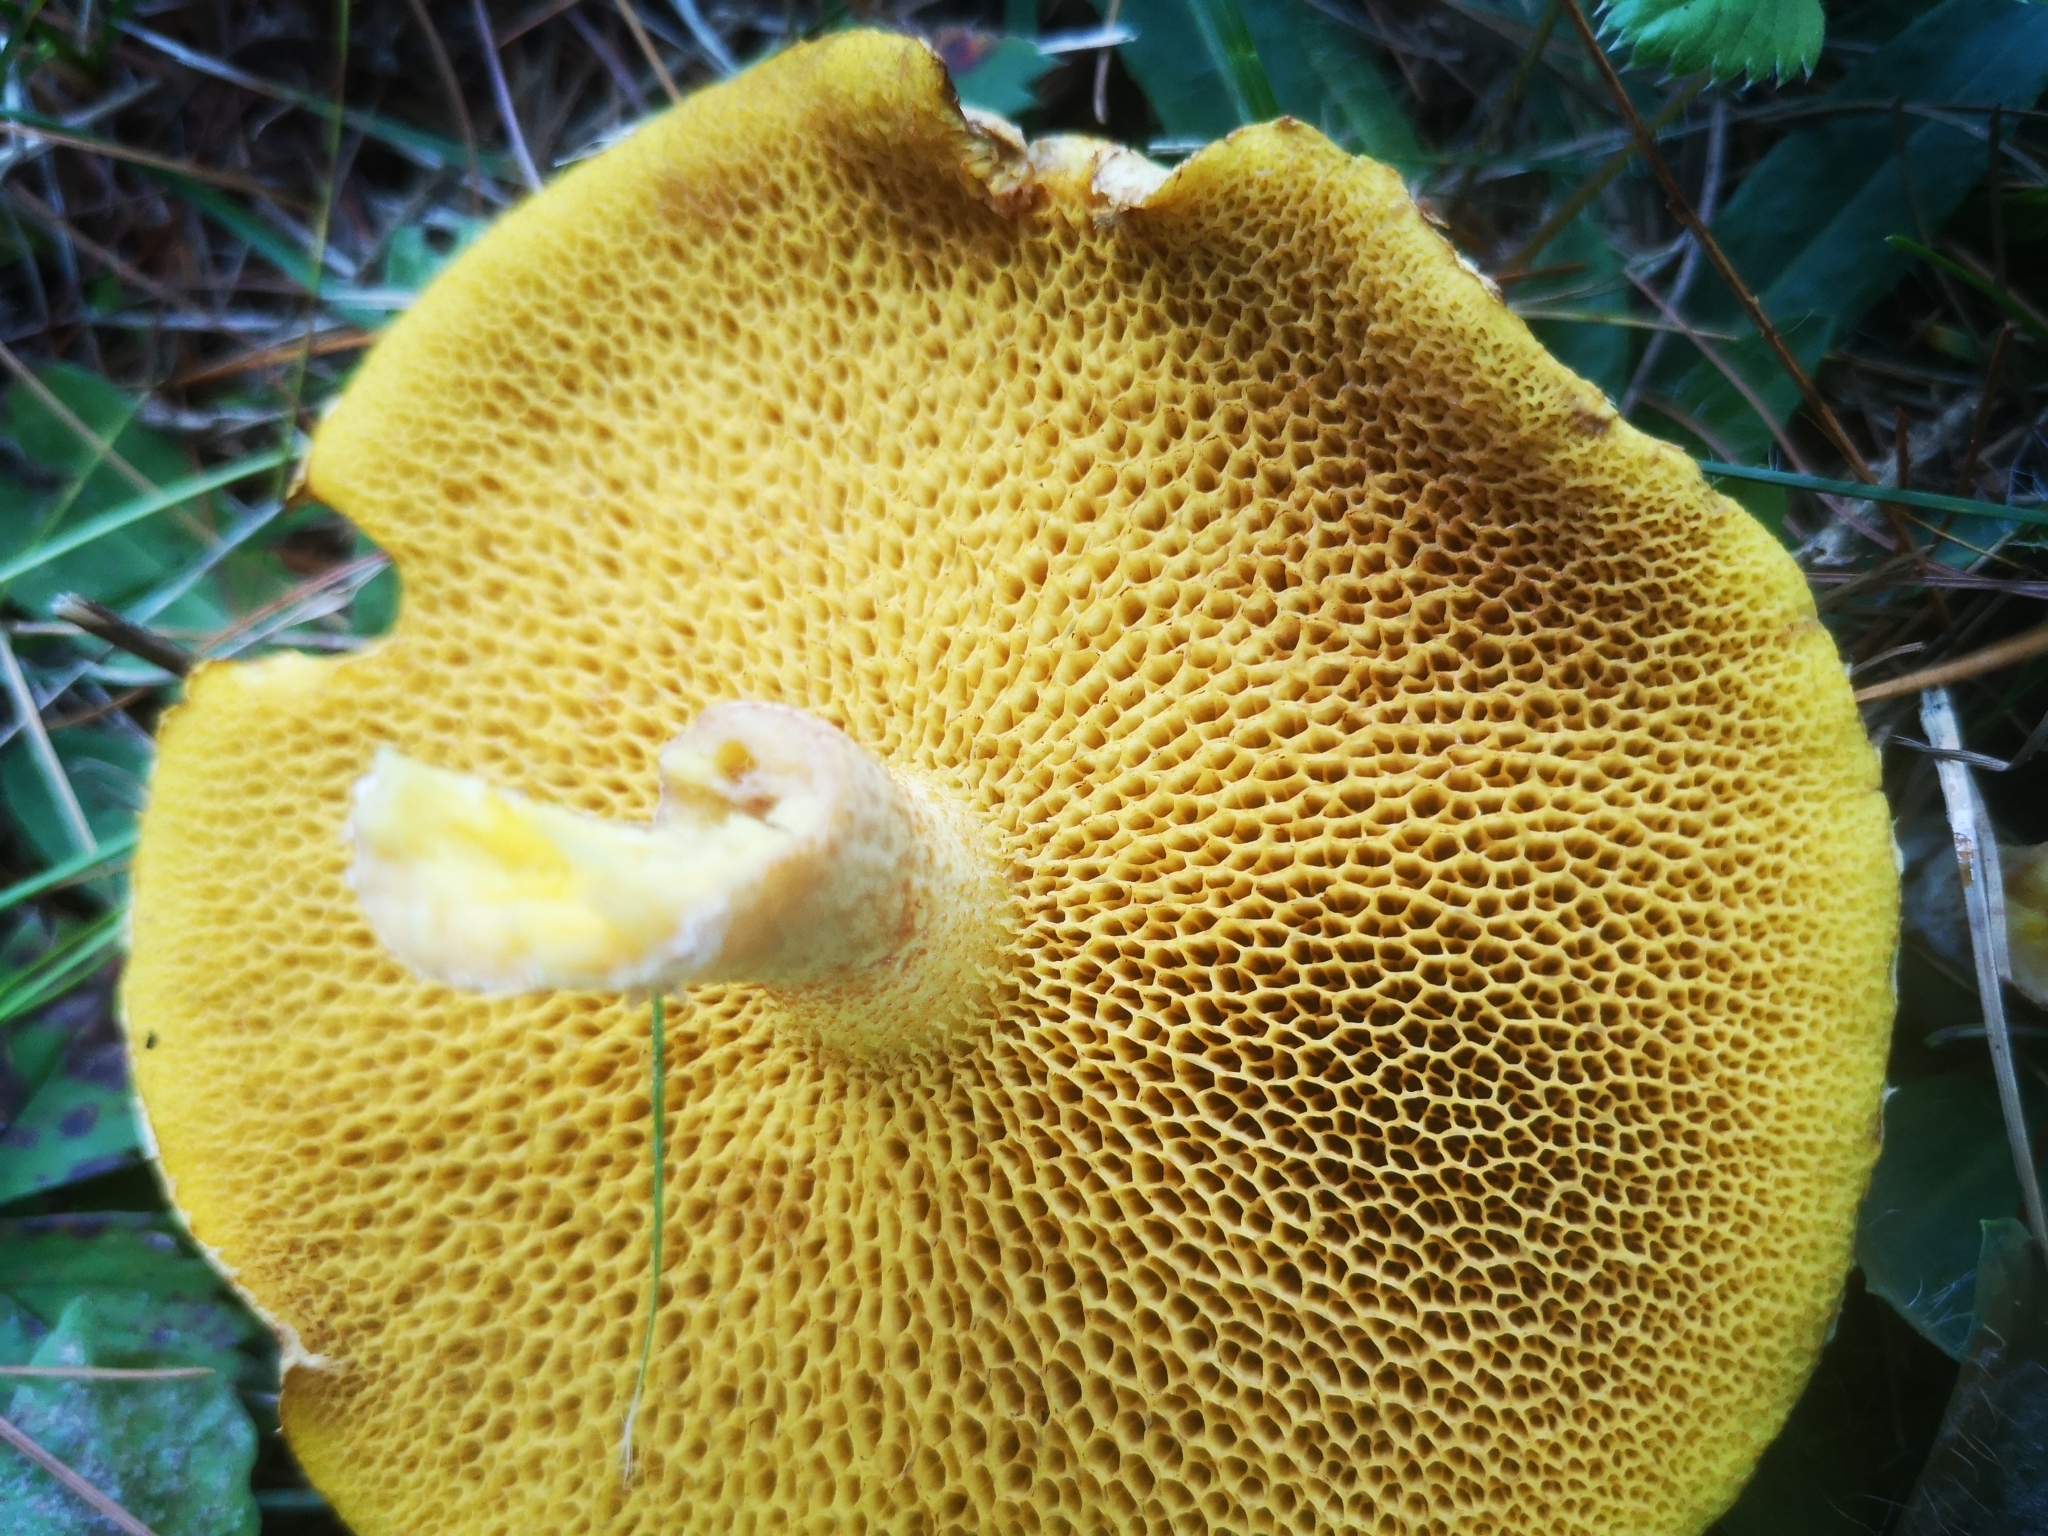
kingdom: Fungi
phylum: Basidiomycota
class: Agaricomycetes
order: Boletales
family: Suillaceae
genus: Suillus
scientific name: Suillus americanus
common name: Chicken fat mushroom
